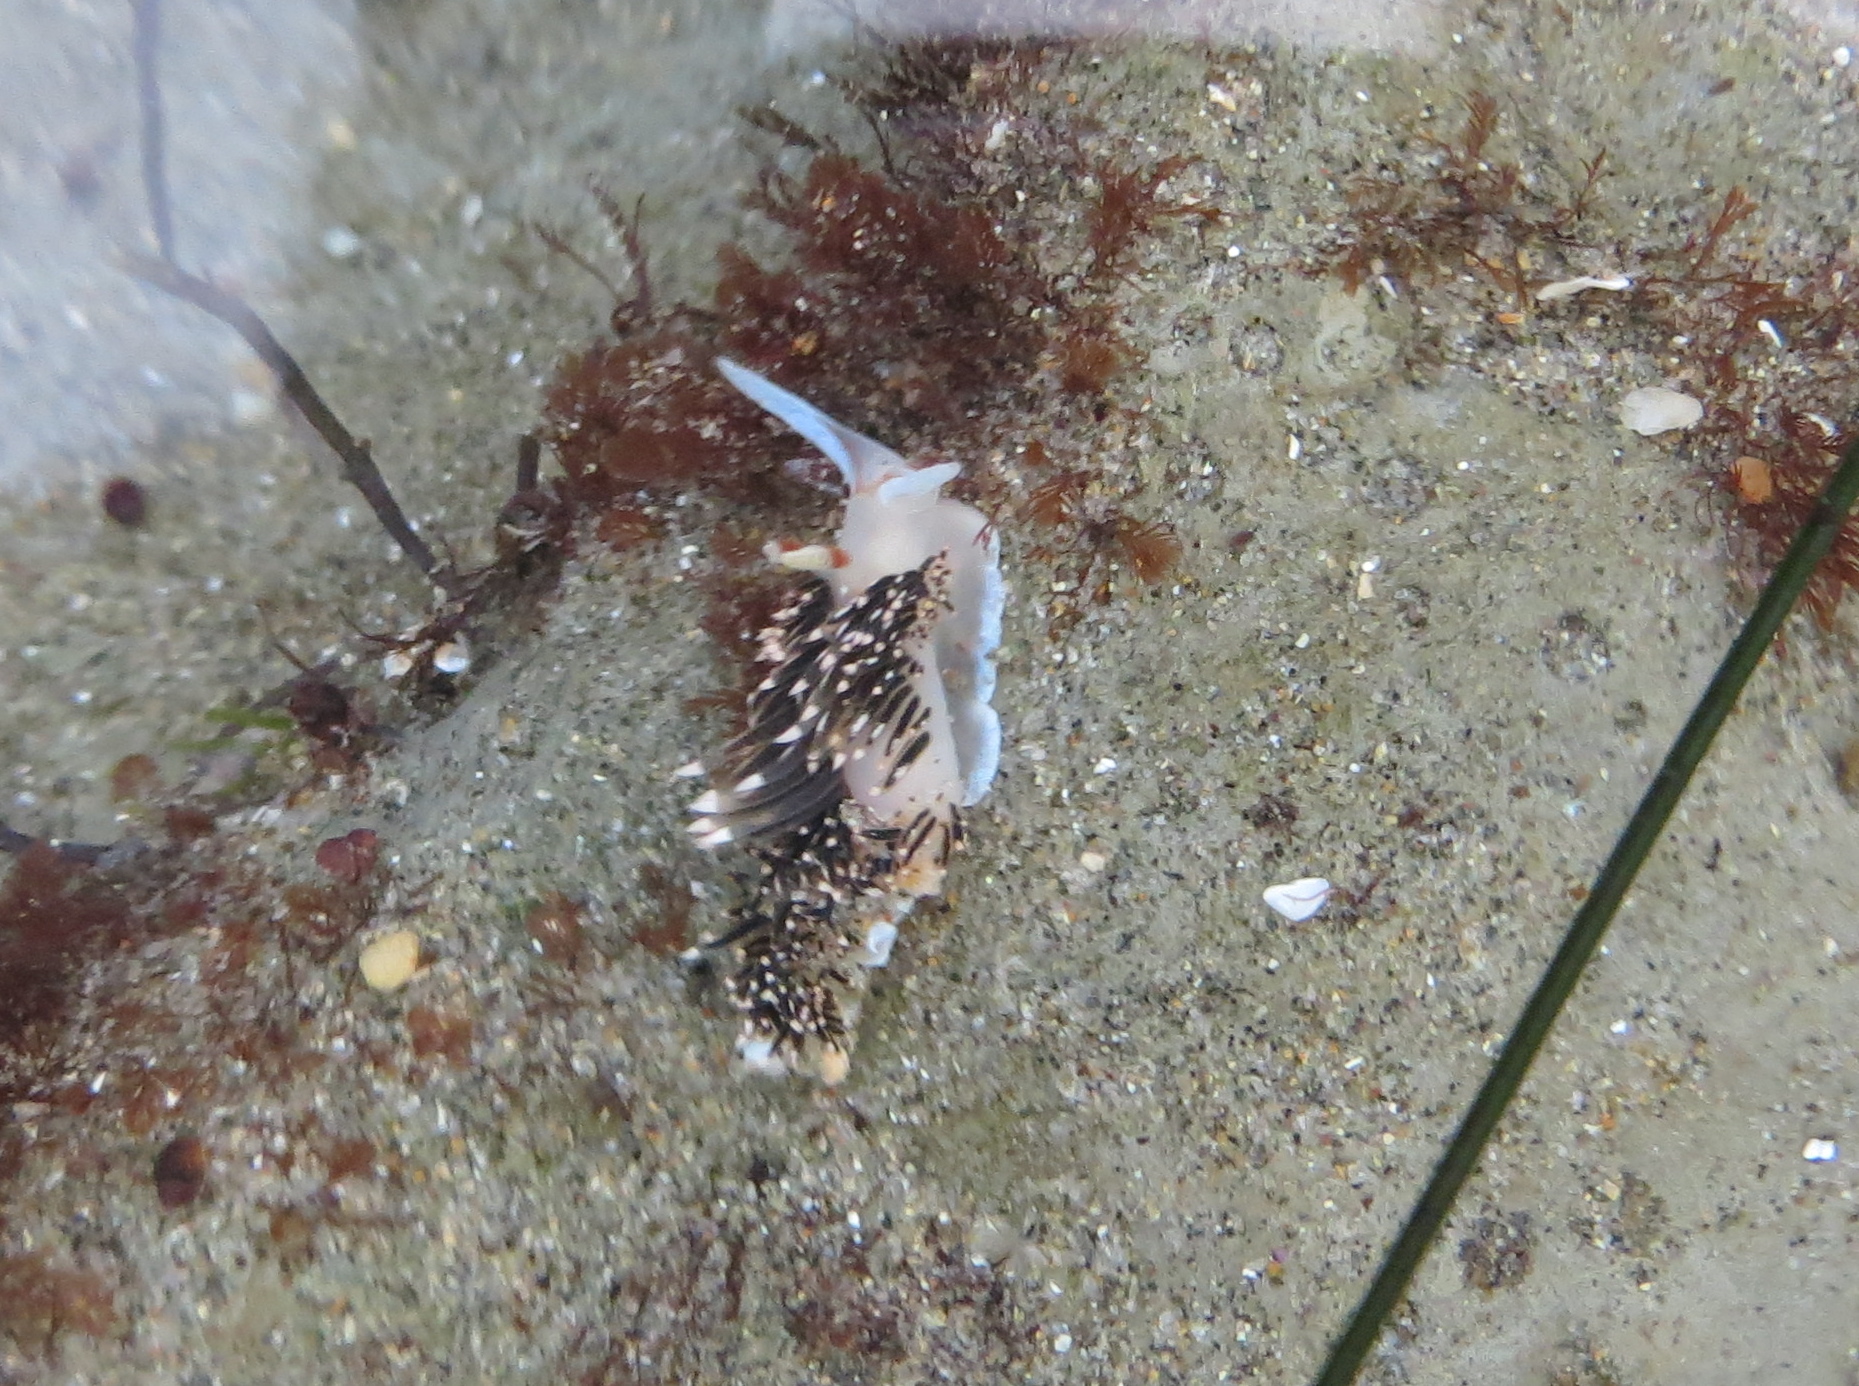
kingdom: Animalia
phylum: Mollusca
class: Gastropoda
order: Nudibranchia
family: Facelinidae
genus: Phidiana
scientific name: Phidiana hiltoni
